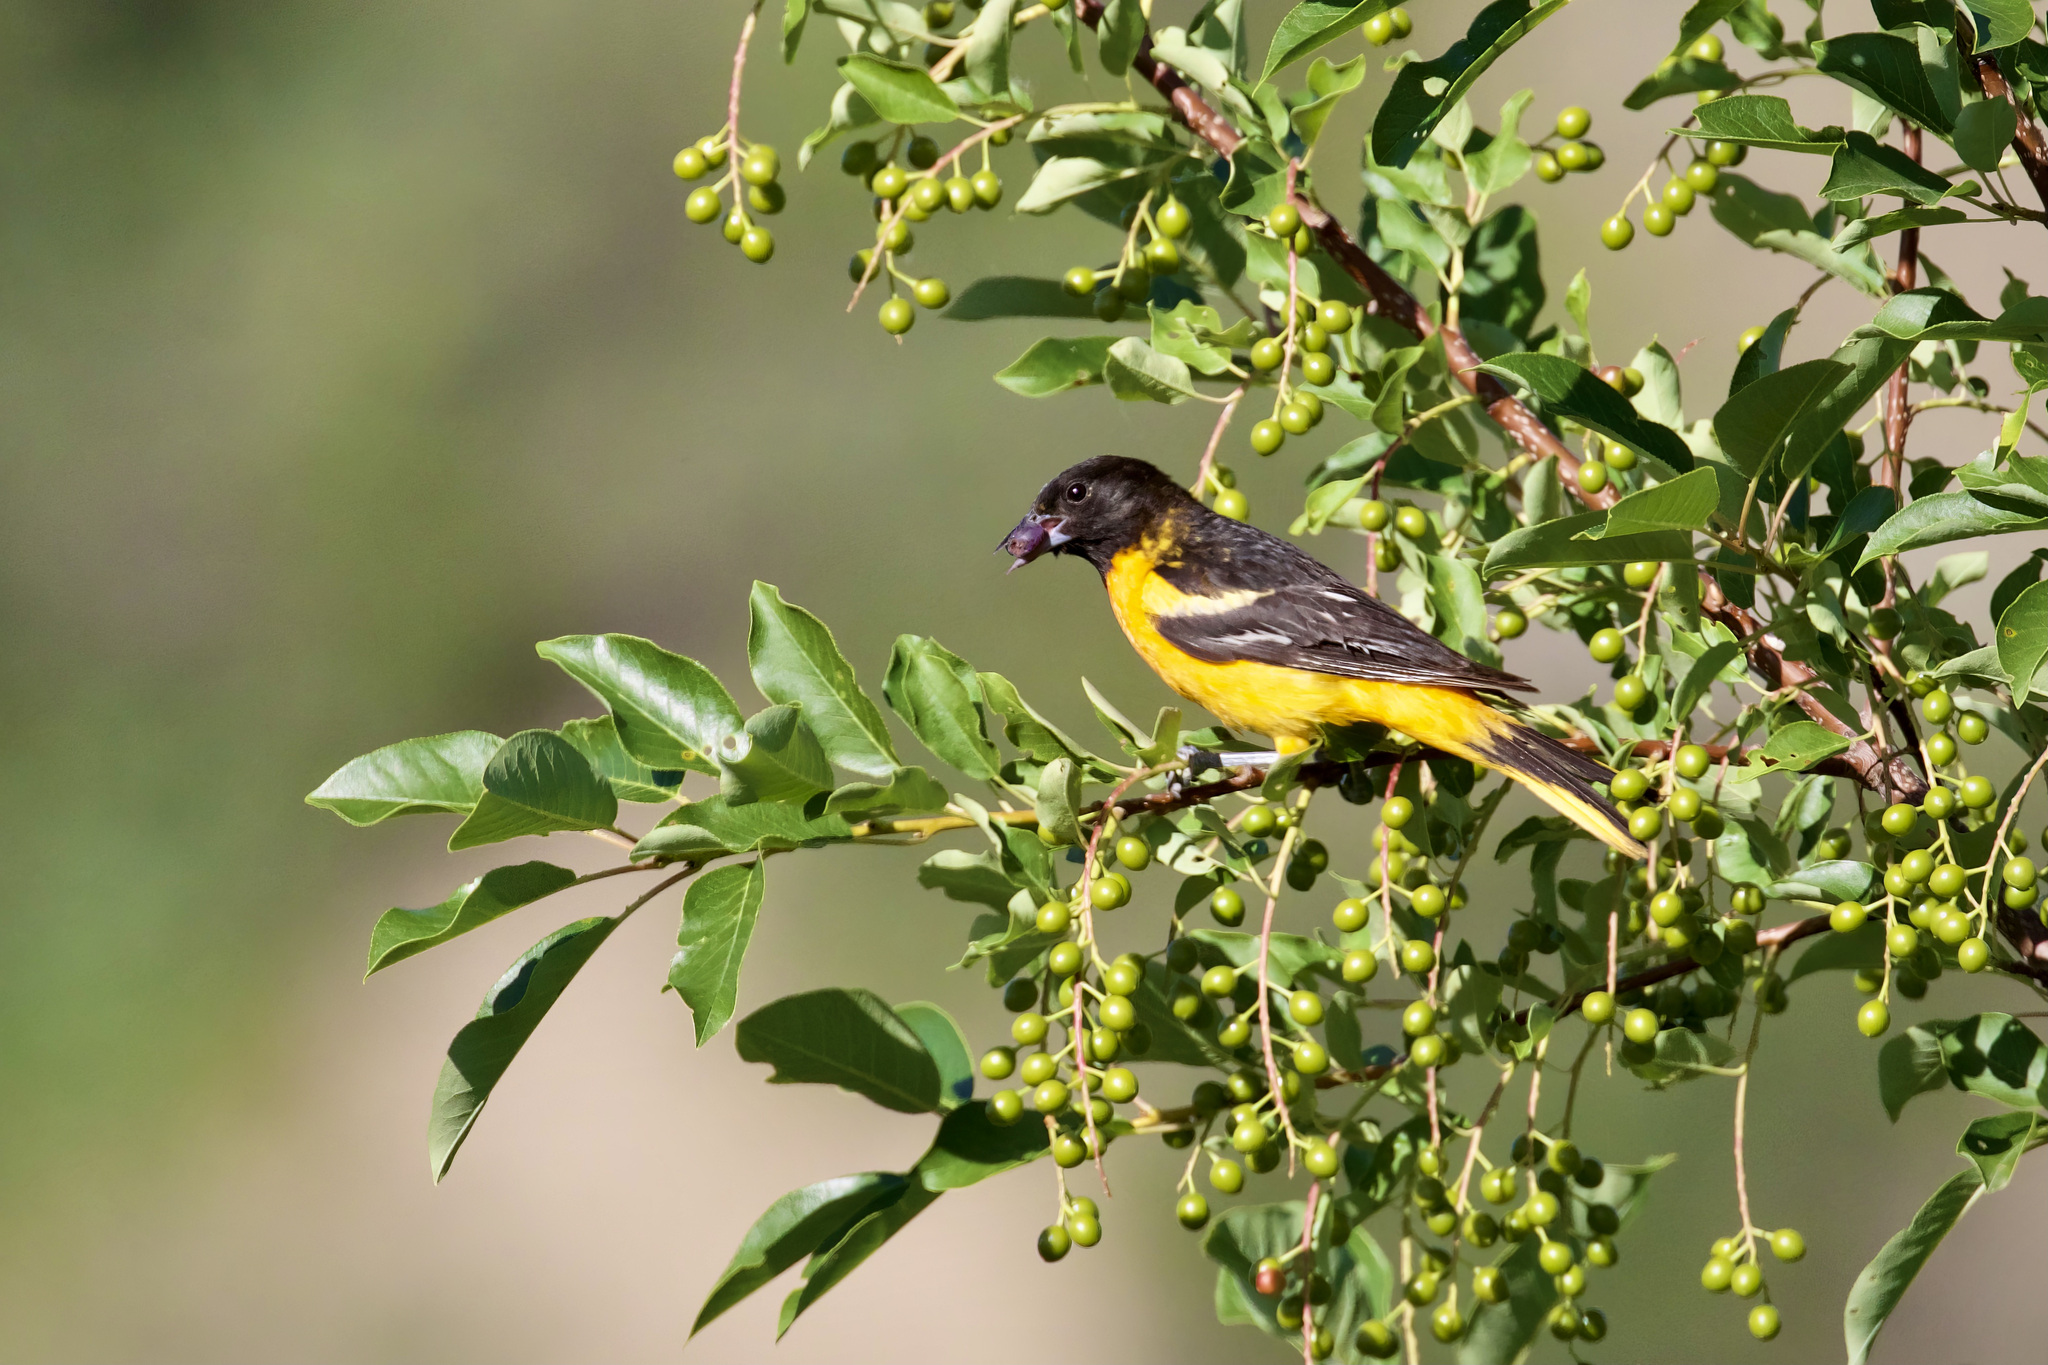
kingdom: Animalia
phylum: Chordata
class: Aves
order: Passeriformes
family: Icteridae
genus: Icterus
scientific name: Icterus galbula
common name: Baltimore oriole
